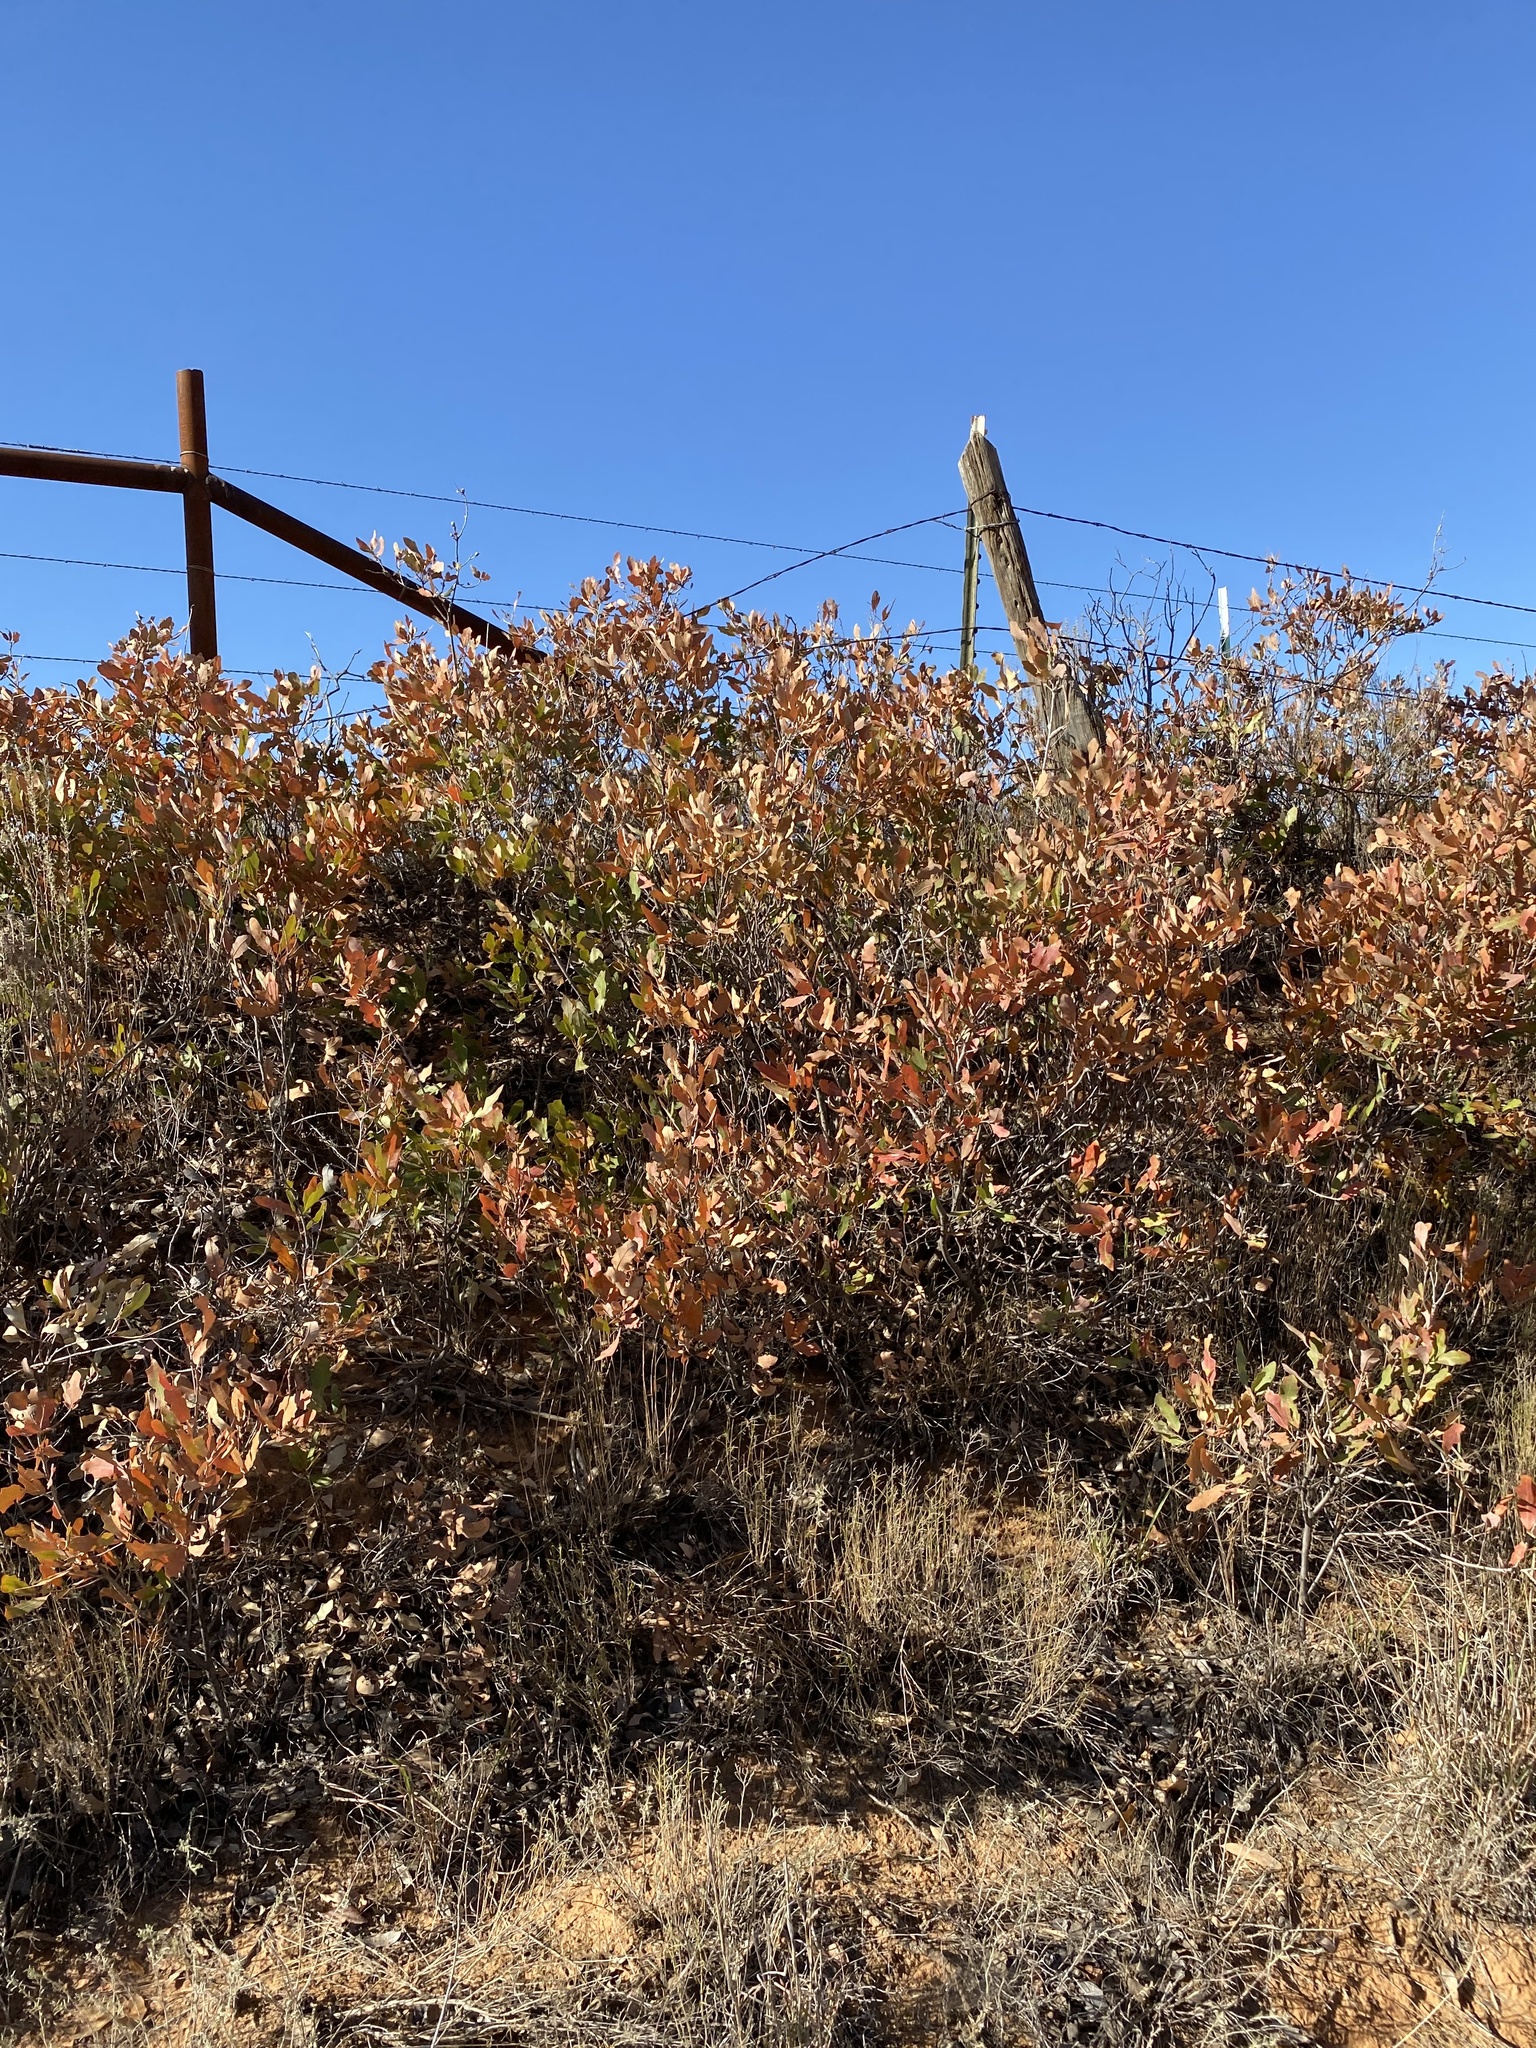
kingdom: Plantae
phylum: Tracheophyta
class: Magnoliopsida
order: Fagales
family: Fagaceae
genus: Quercus
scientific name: Quercus havardii
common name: Shinnery oak
